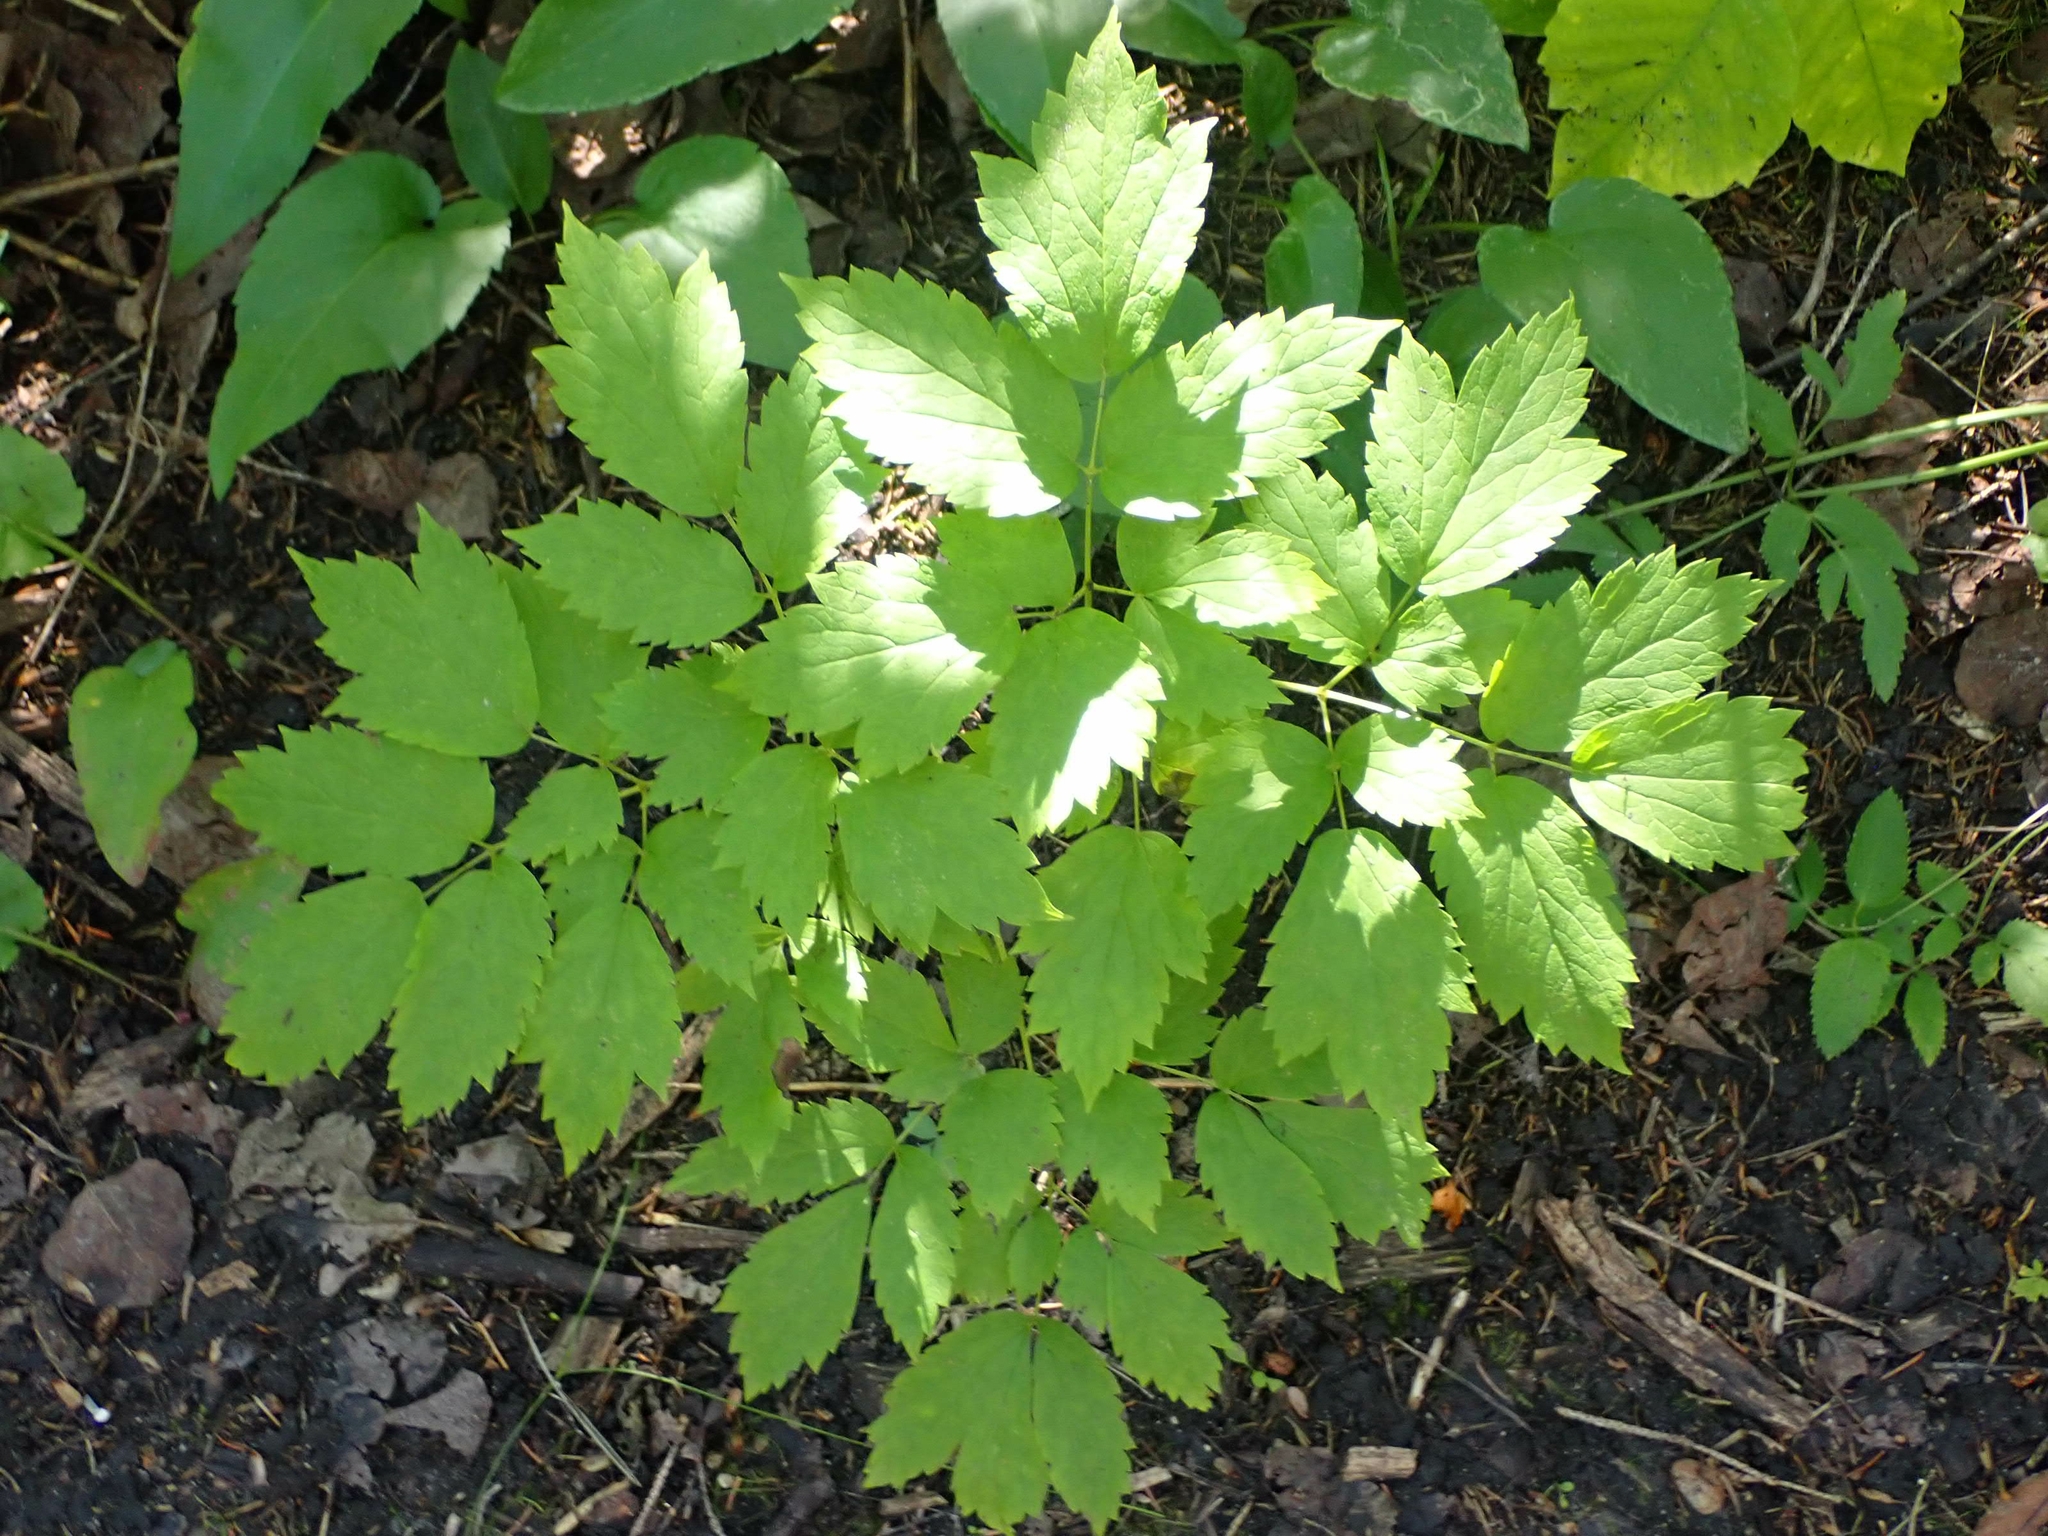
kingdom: Plantae
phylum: Tracheophyta
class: Magnoliopsida
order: Ranunculales
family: Ranunculaceae
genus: Actaea
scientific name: Actaea rubra
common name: Red baneberry
